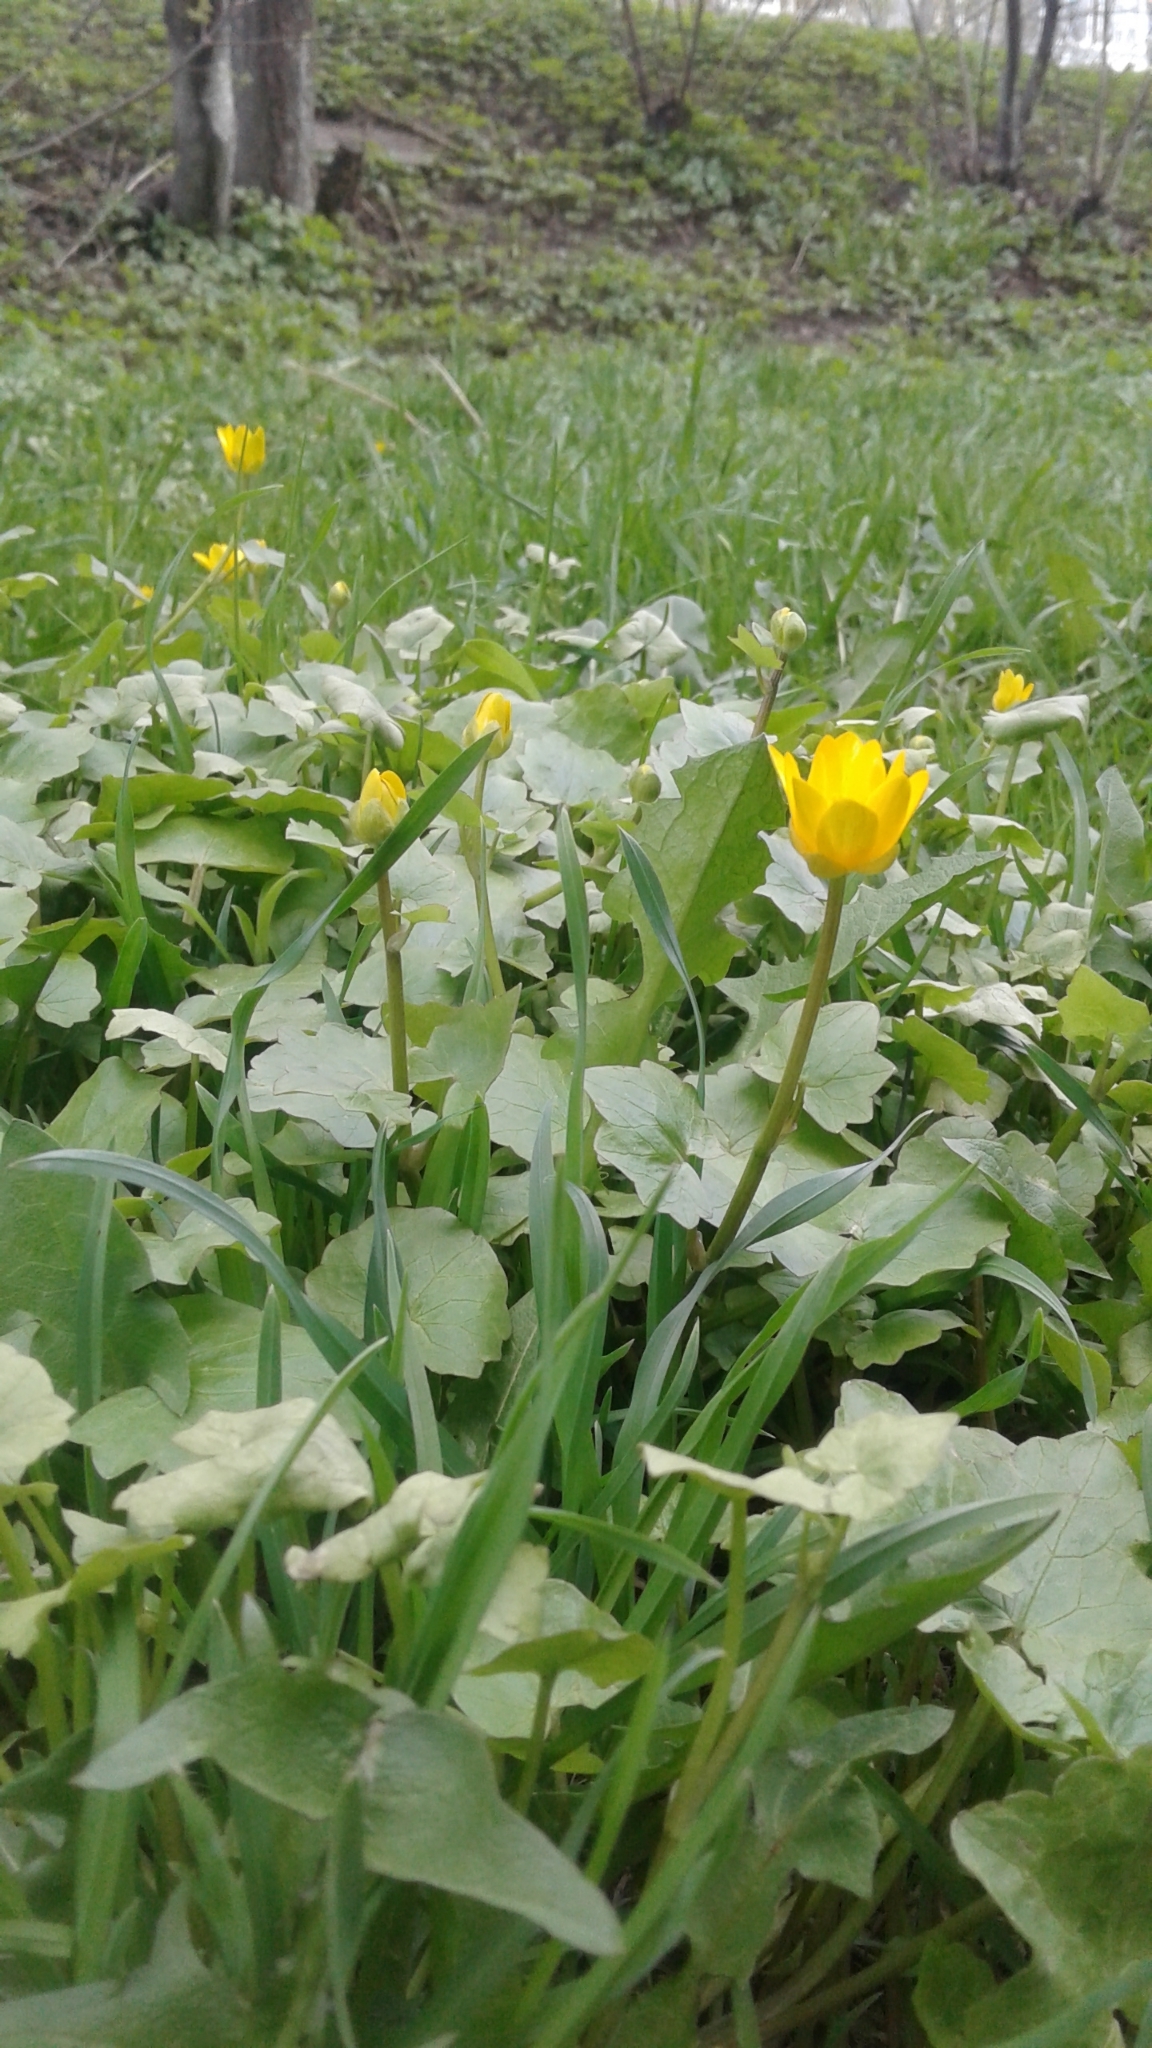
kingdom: Plantae
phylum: Tracheophyta
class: Magnoliopsida
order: Ranunculales
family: Ranunculaceae
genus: Ficaria
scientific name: Ficaria verna
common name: Lesser celandine
